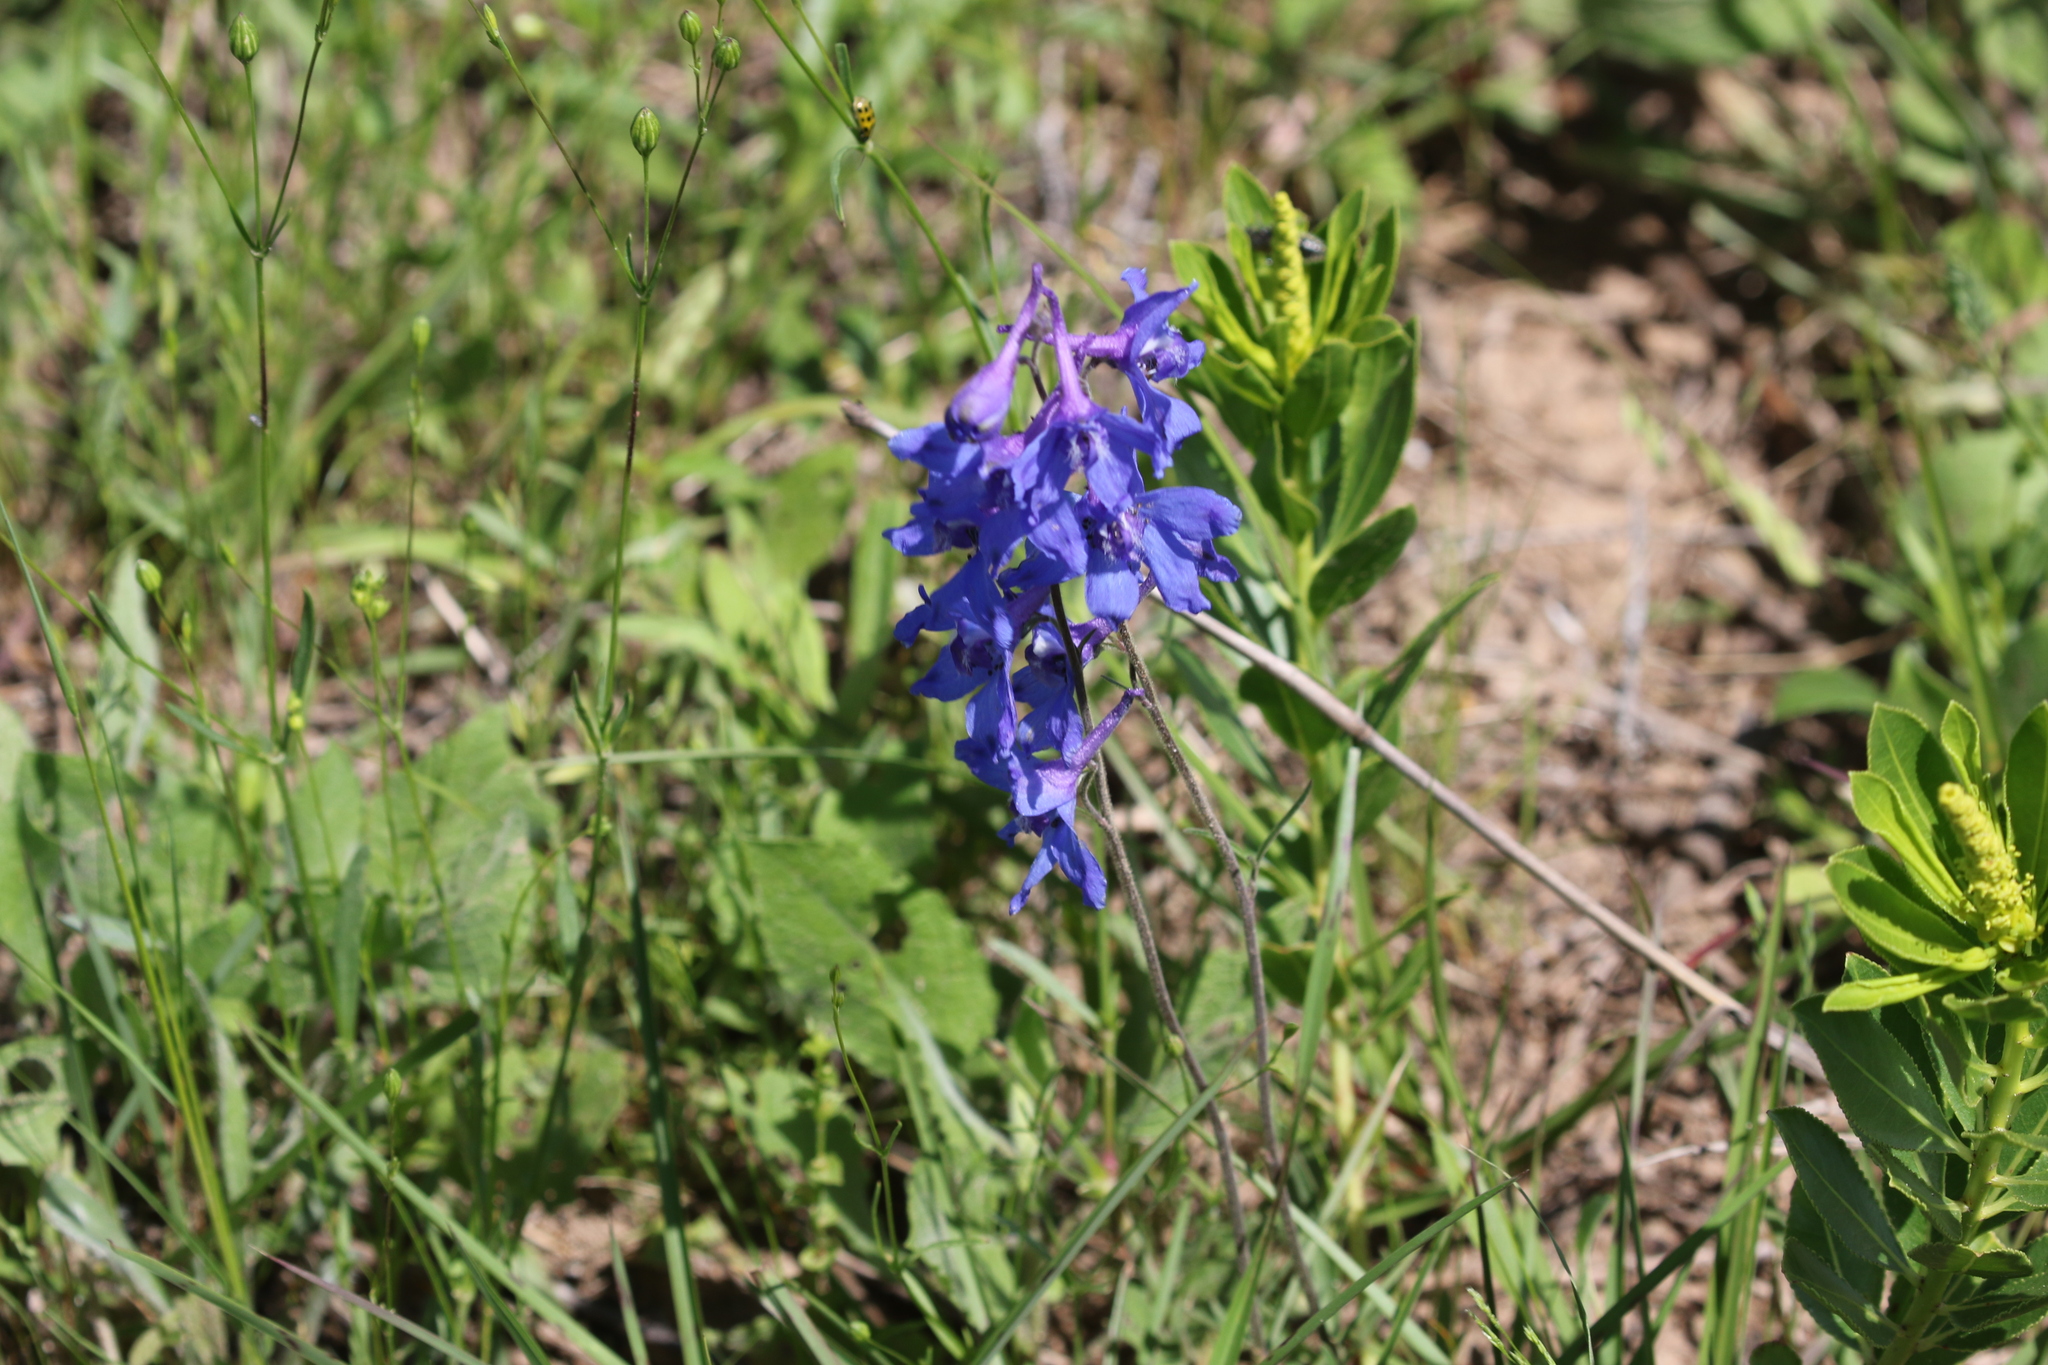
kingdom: Plantae
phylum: Tracheophyta
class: Magnoliopsida
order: Ranunculales
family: Ranunculaceae
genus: Delphinium
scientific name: Delphinium carolinianum
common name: Carolina larkspur
